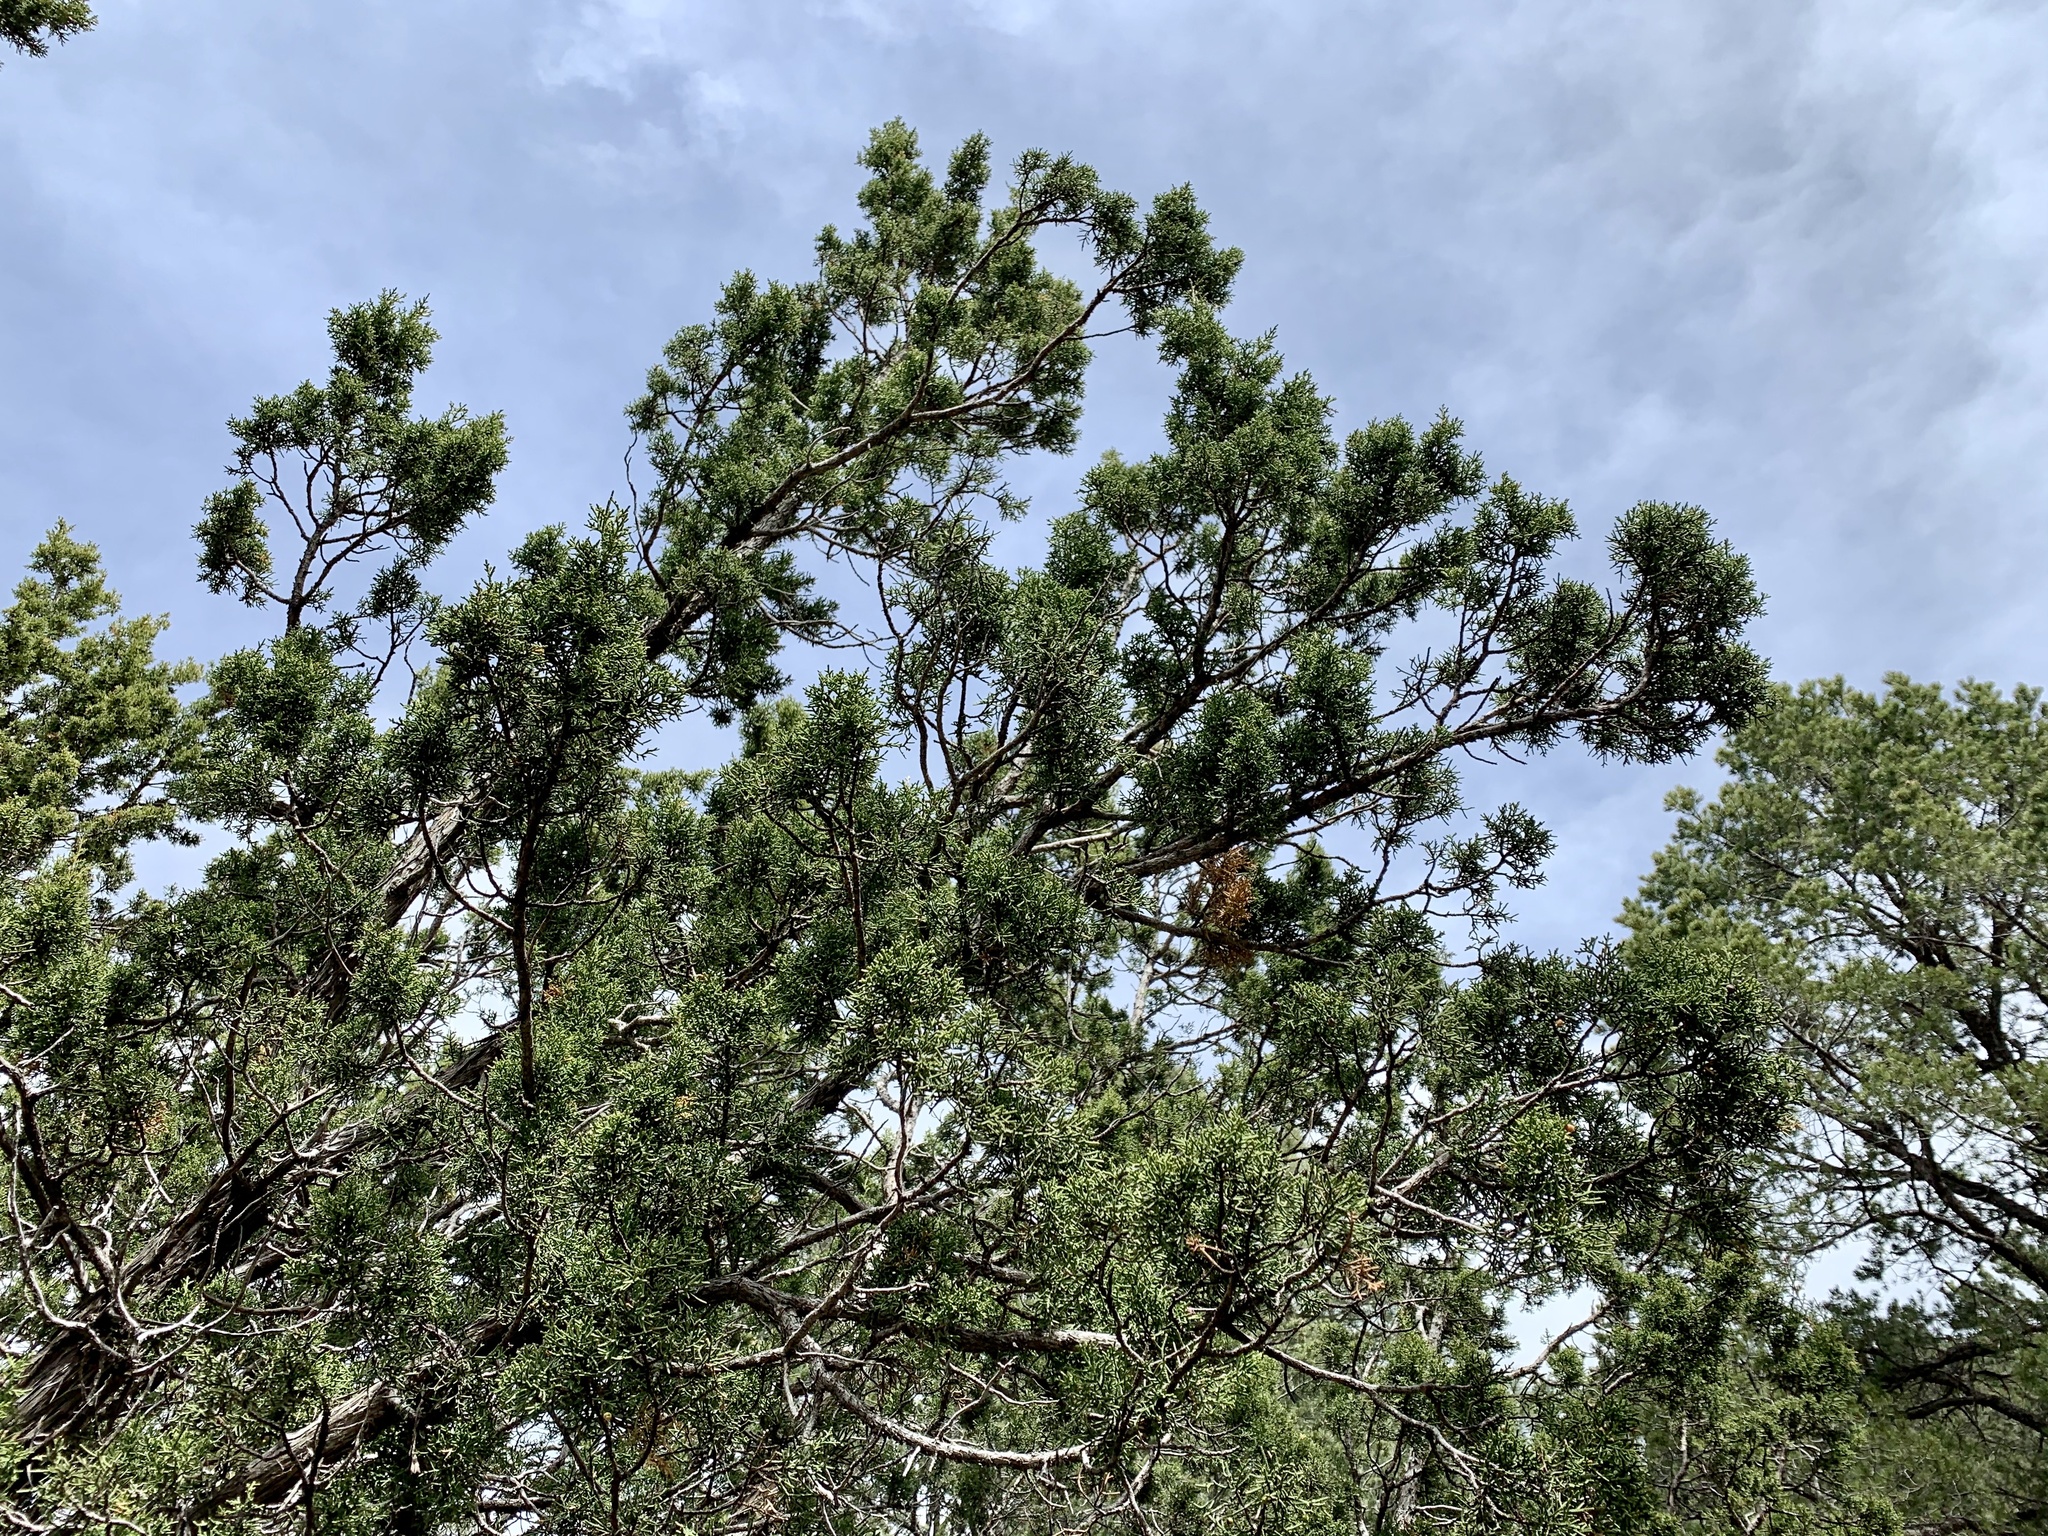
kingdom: Plantae
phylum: Tracheophyta
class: Pinopsida
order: Pinales
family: Cupressaceae
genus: Juniperus
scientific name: Juniperus monosperma
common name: One-seed juniper
